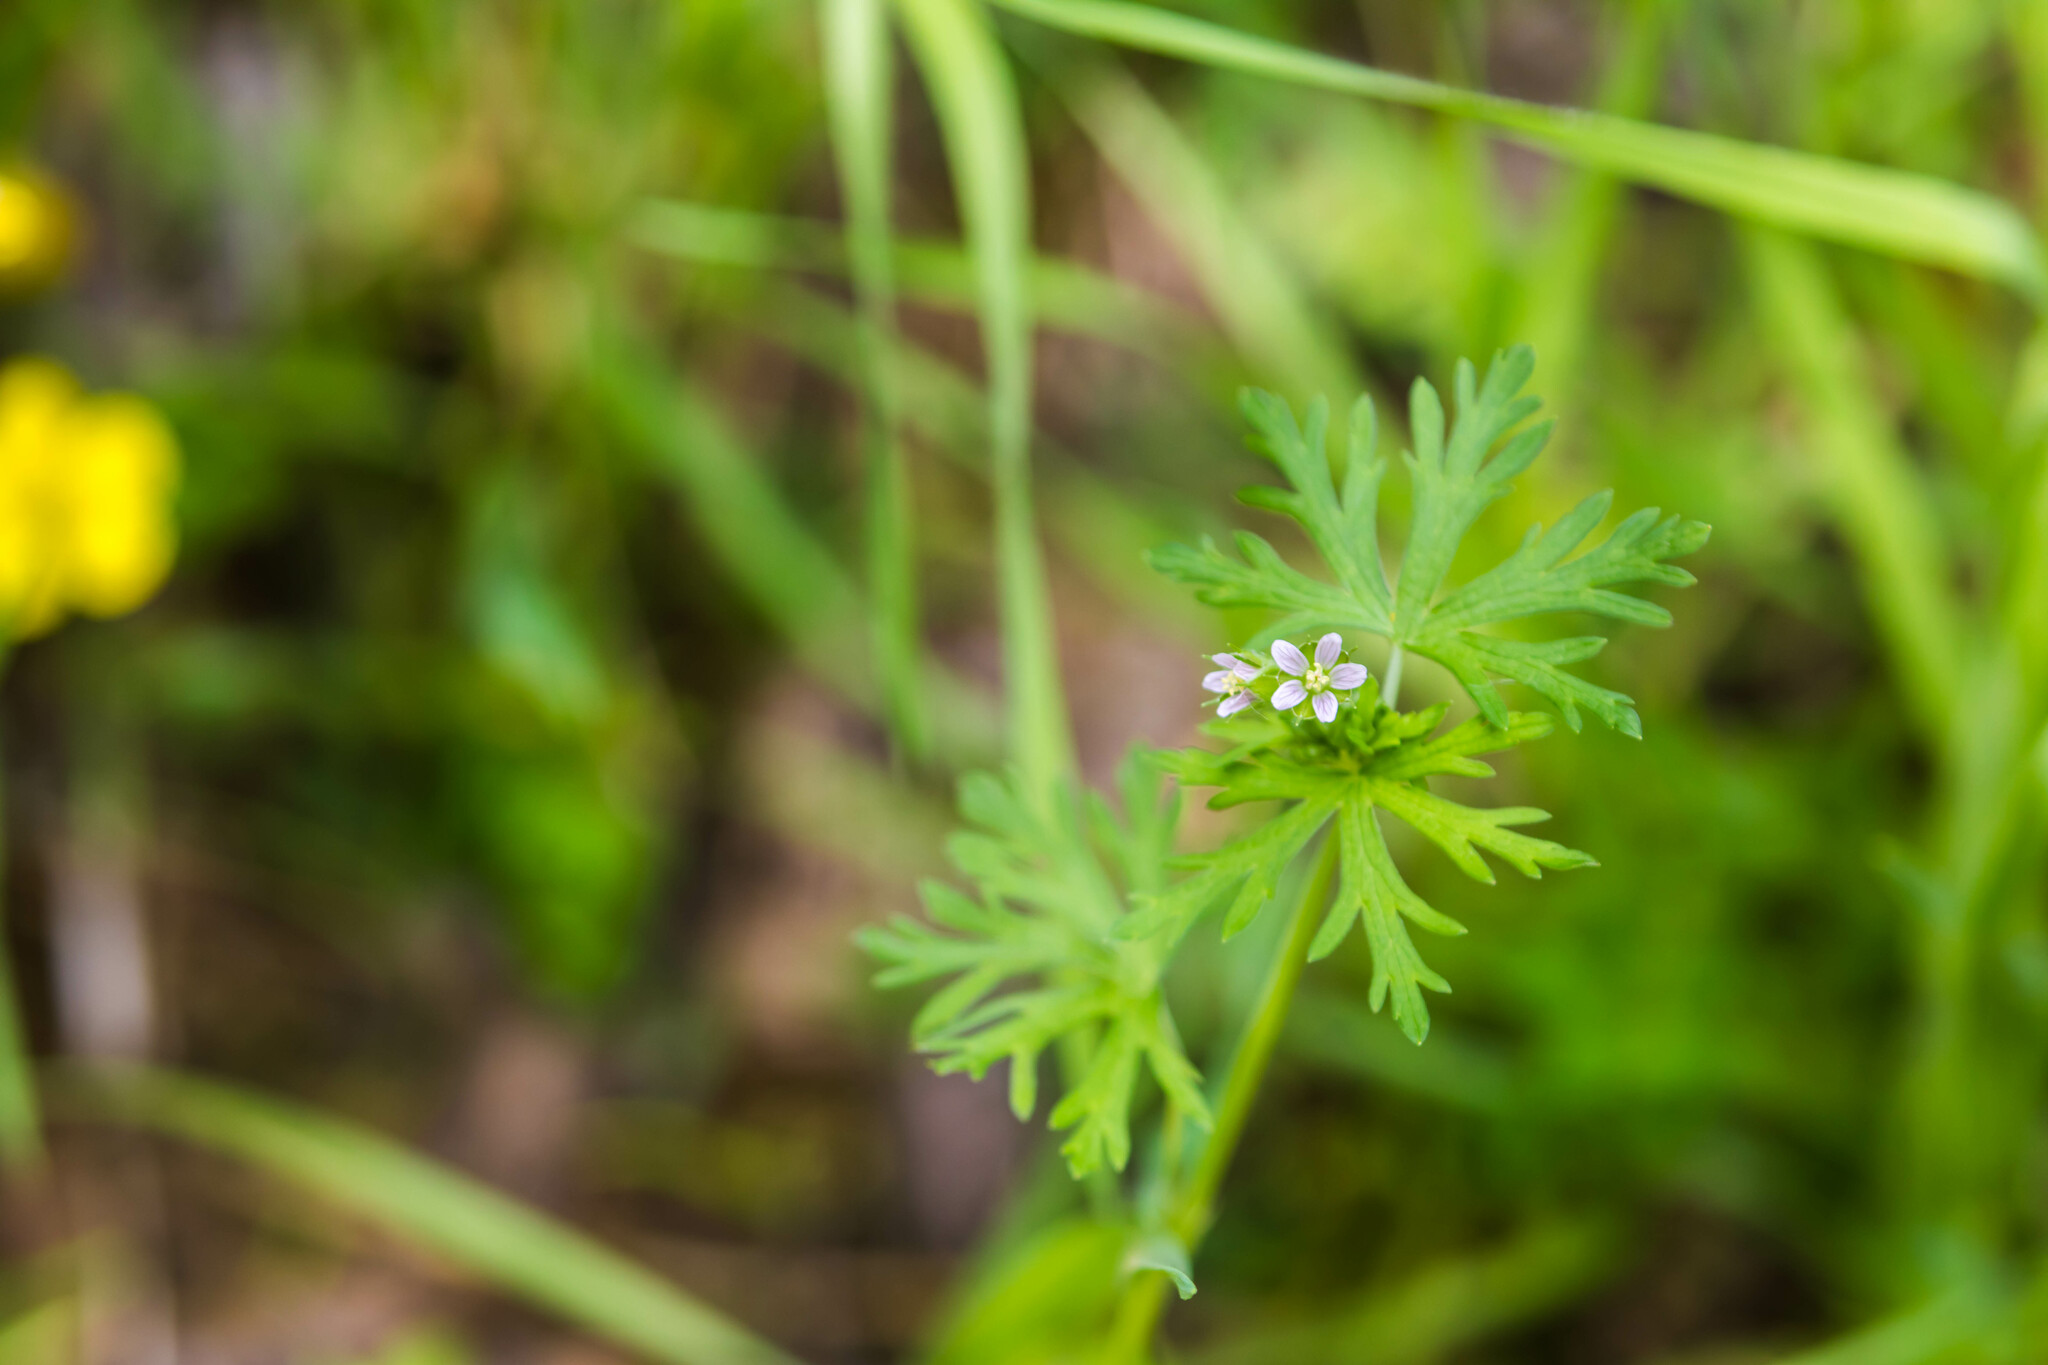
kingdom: Plantae
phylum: Tracheophyta
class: Magnoliopsida
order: Geraniales
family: Geraniaceae
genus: Geranium
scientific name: Geranium carolinianum
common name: Carolina crane's-bill
